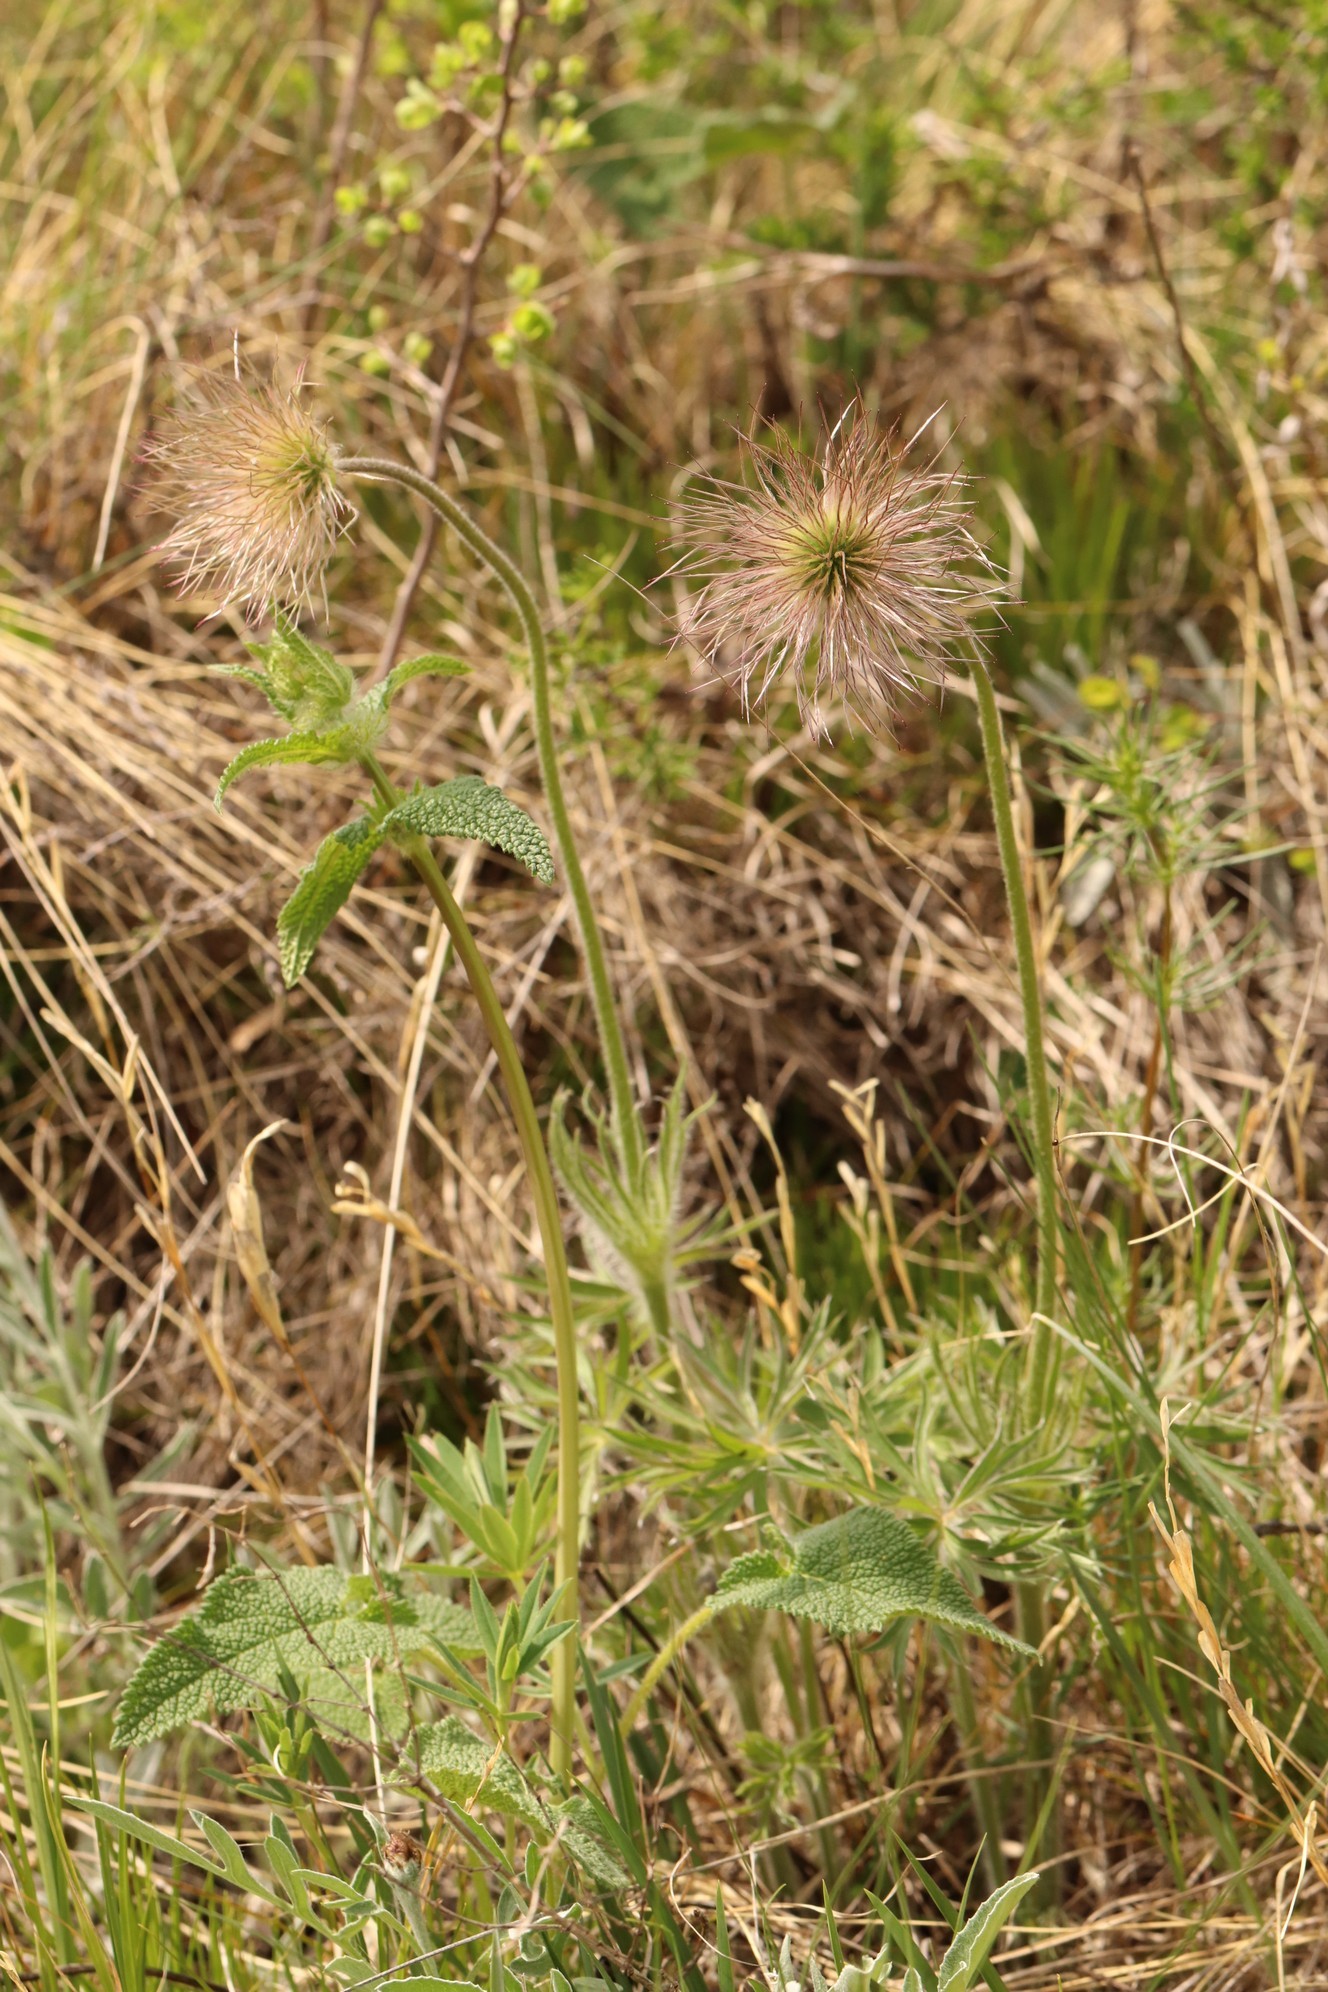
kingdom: Plantae
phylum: Tracheophyta
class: Magnoliopsida
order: Ranunculales
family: Ranunculaceae
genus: Pulsatilla
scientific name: Pulsatilla patens
